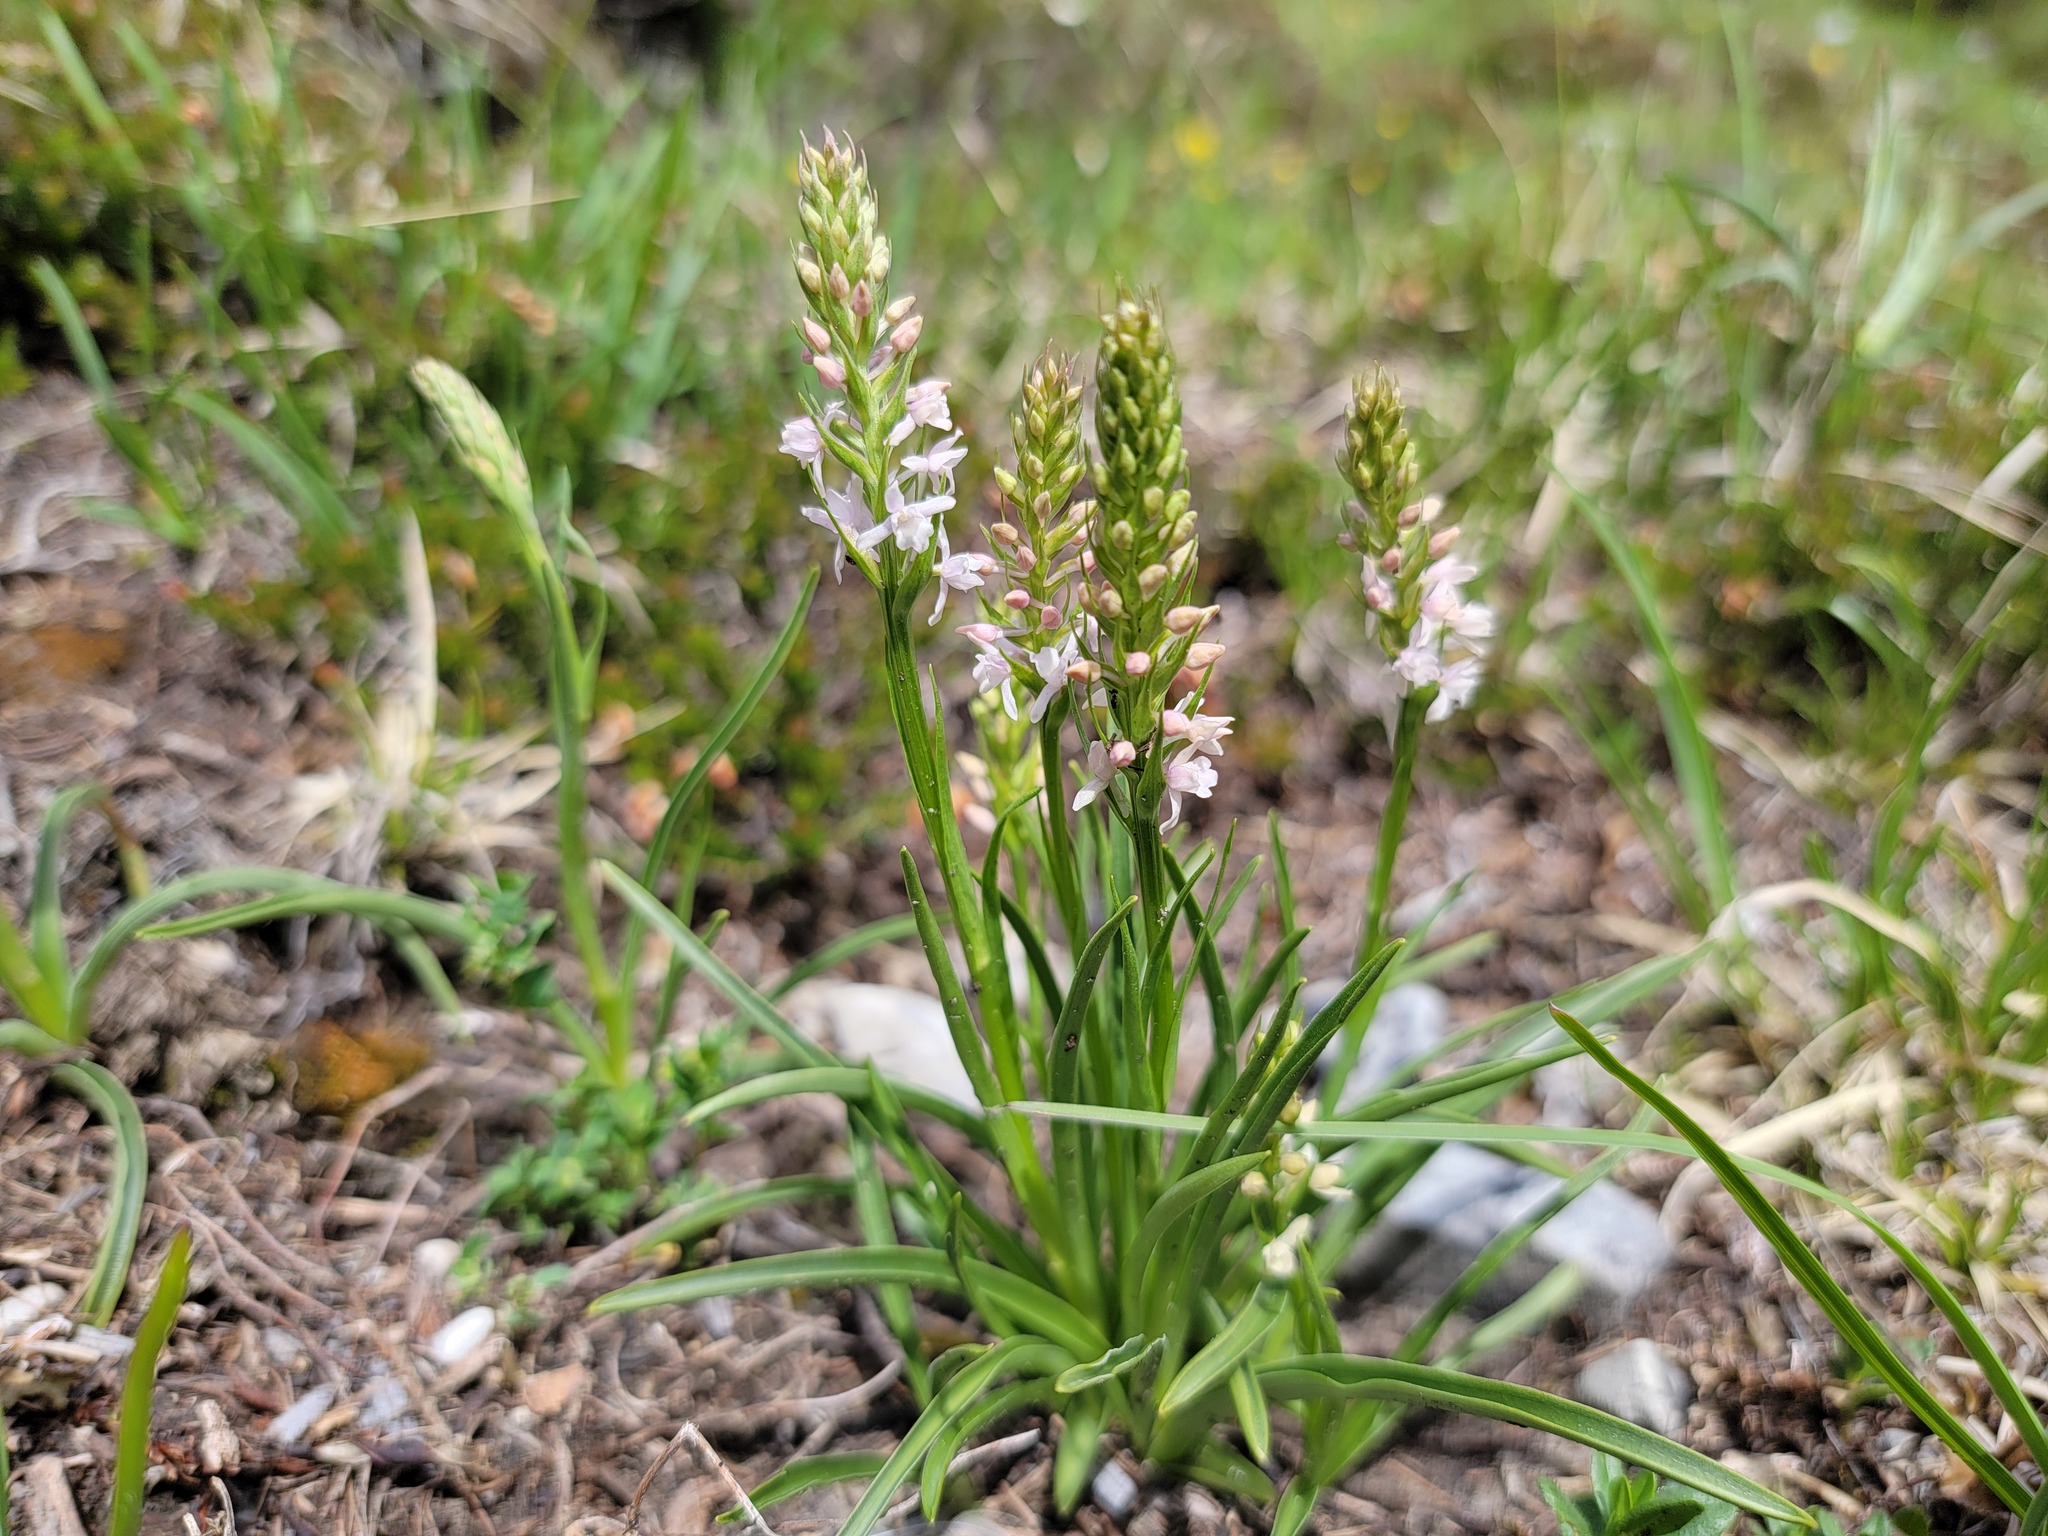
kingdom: Plantae
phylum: Tracheophyta
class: Liliopsida
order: Asparagales
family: Orchidaceae
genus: Gymnadenia
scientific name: Gymnadenia odoratissima
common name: Scented gymnadenia
